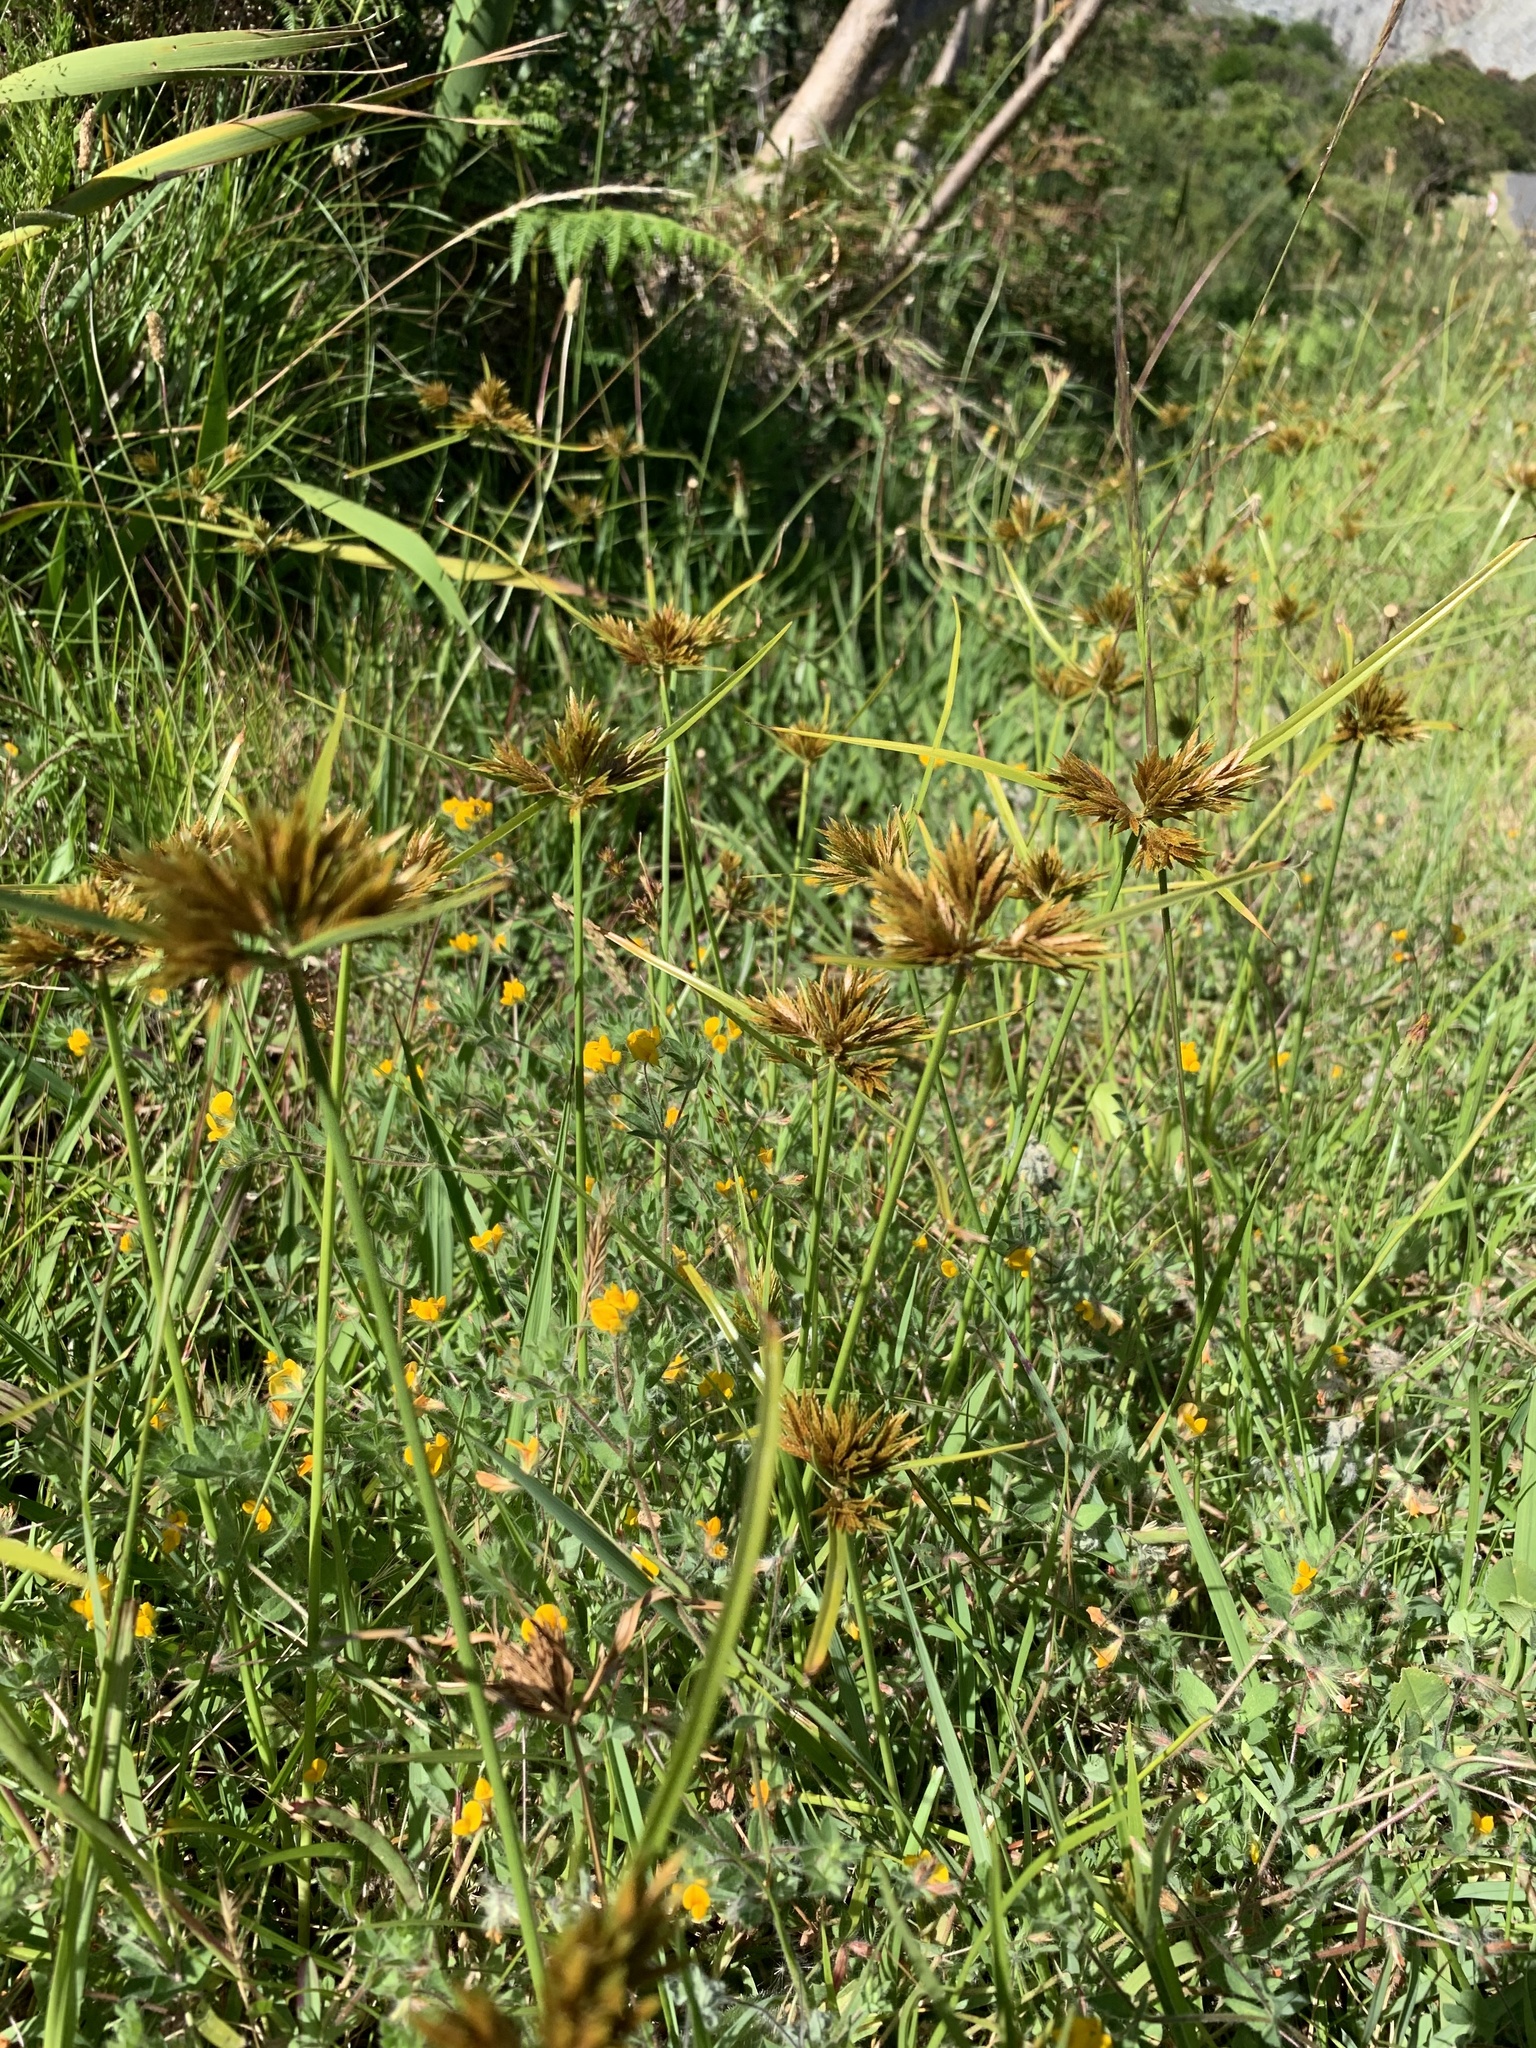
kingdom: Plantae
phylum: Tracheophyta
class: Liliopsida
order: Poales
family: Cyperaceae
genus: Cyperus
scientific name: Cyperus polystachyos
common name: Bunchy flat sedge
